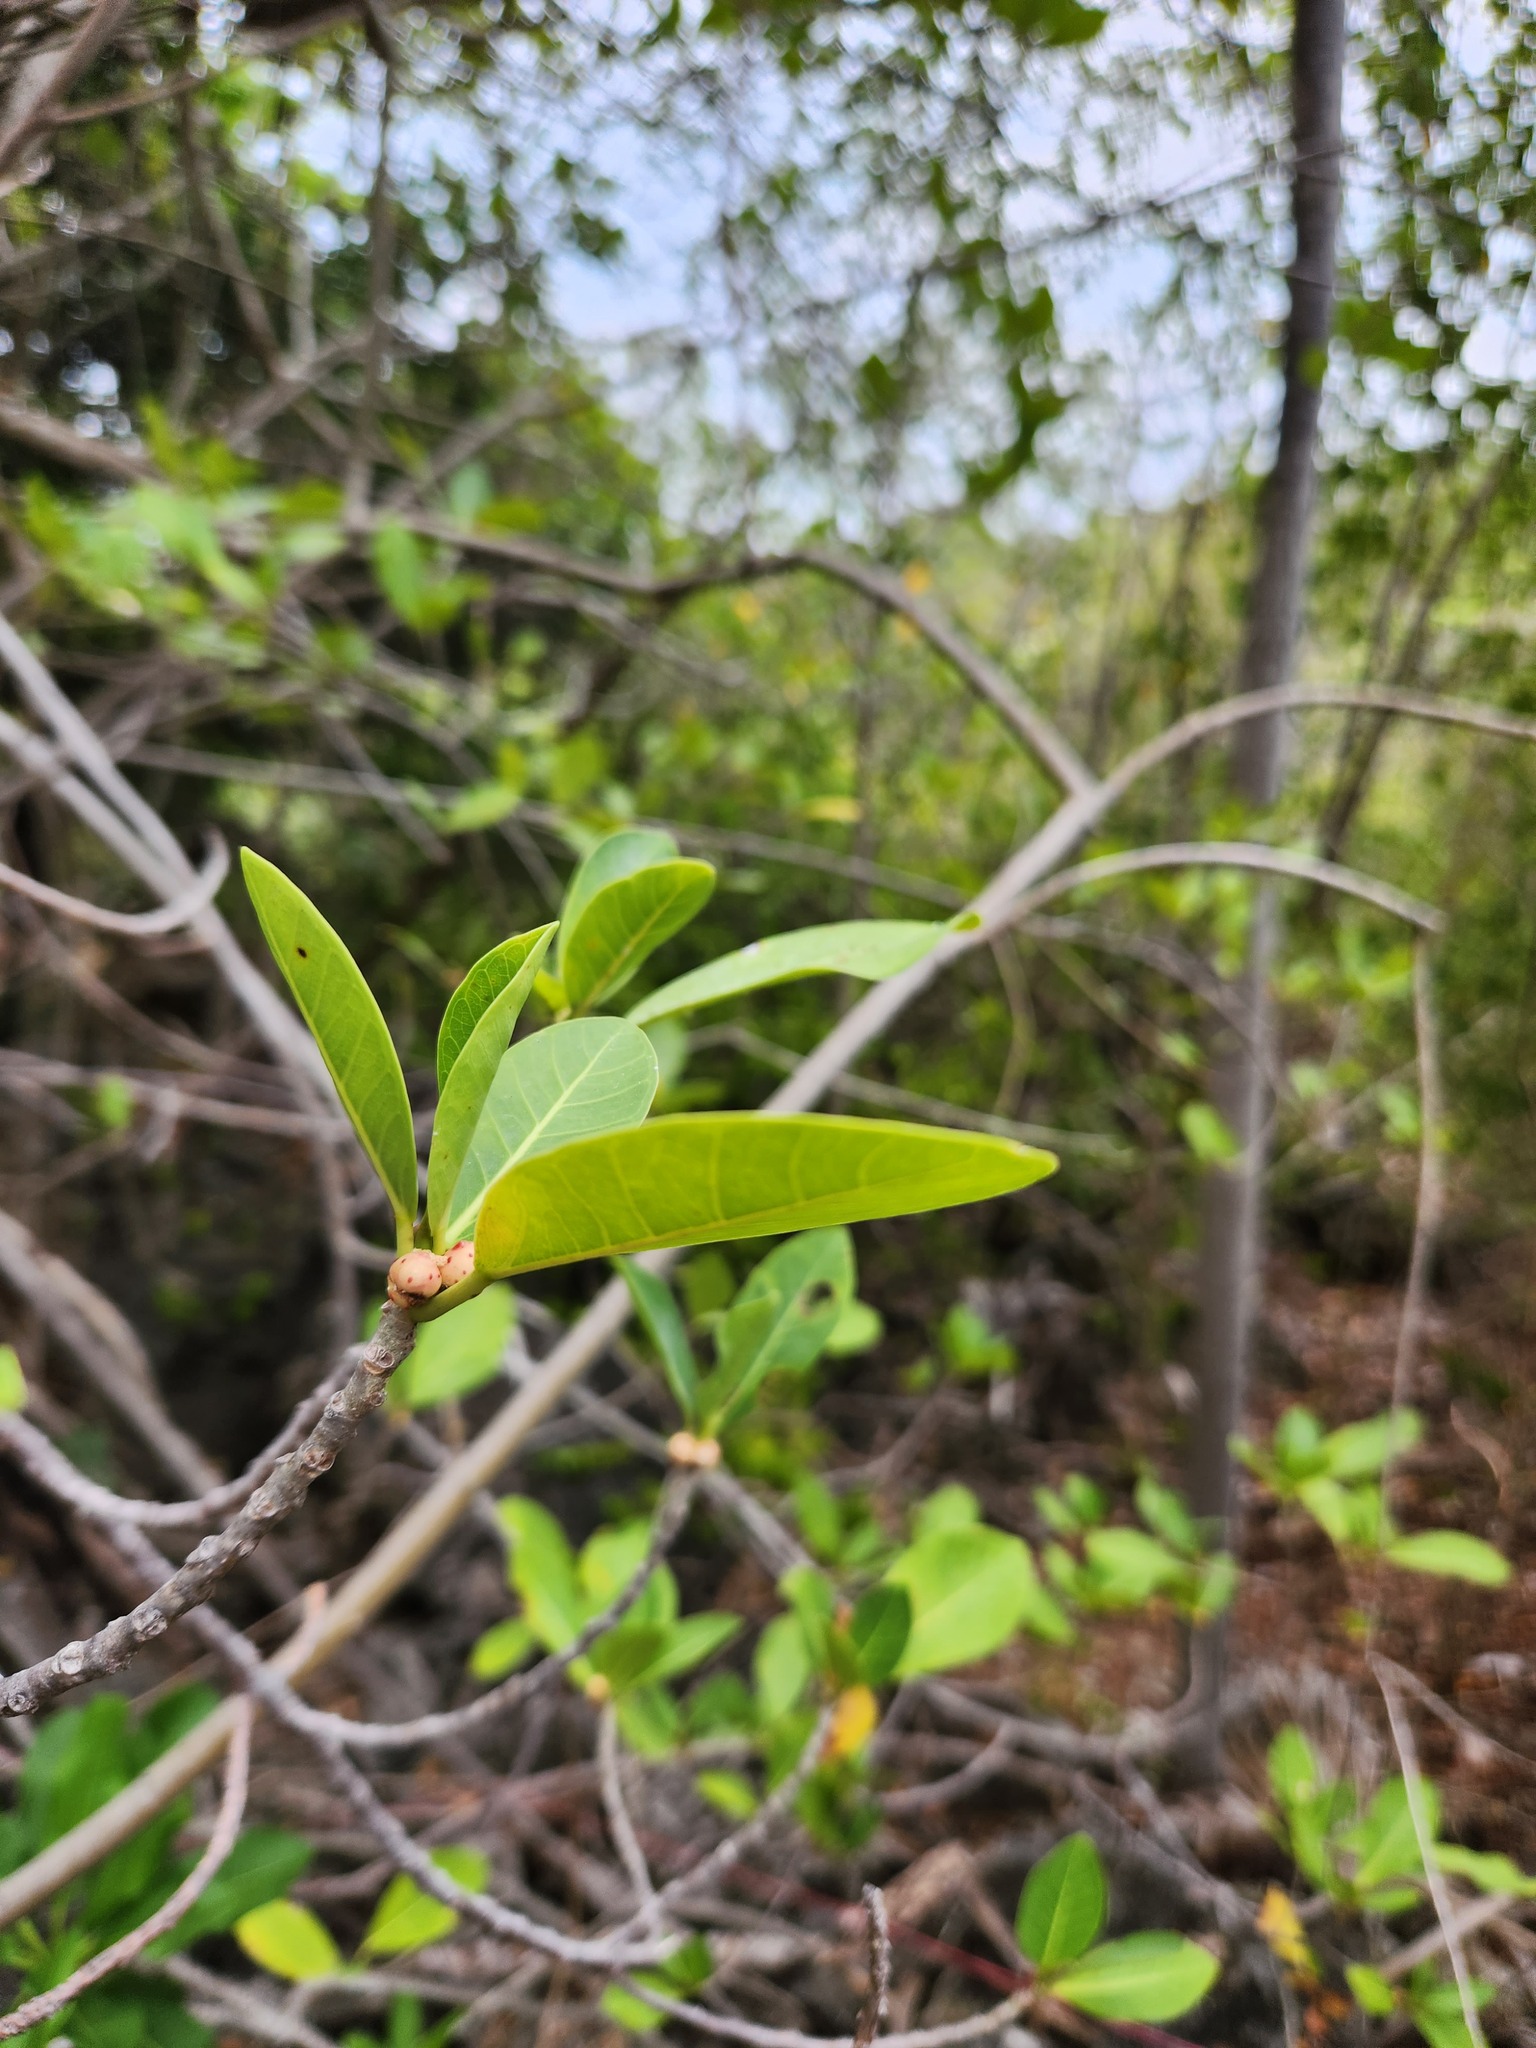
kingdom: Plantae
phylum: Tracheophyta
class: Magnoliopsida
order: Rosales
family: Moraceae
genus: Ficus
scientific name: Ficus aurea
